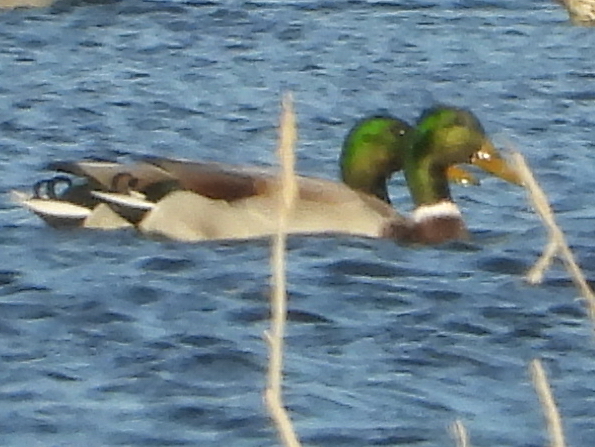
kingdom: Animalia
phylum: Chordata
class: Aves
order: Anseriformes
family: Anatidae
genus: Anas
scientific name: Anas platyrhynchos
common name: Mallard
